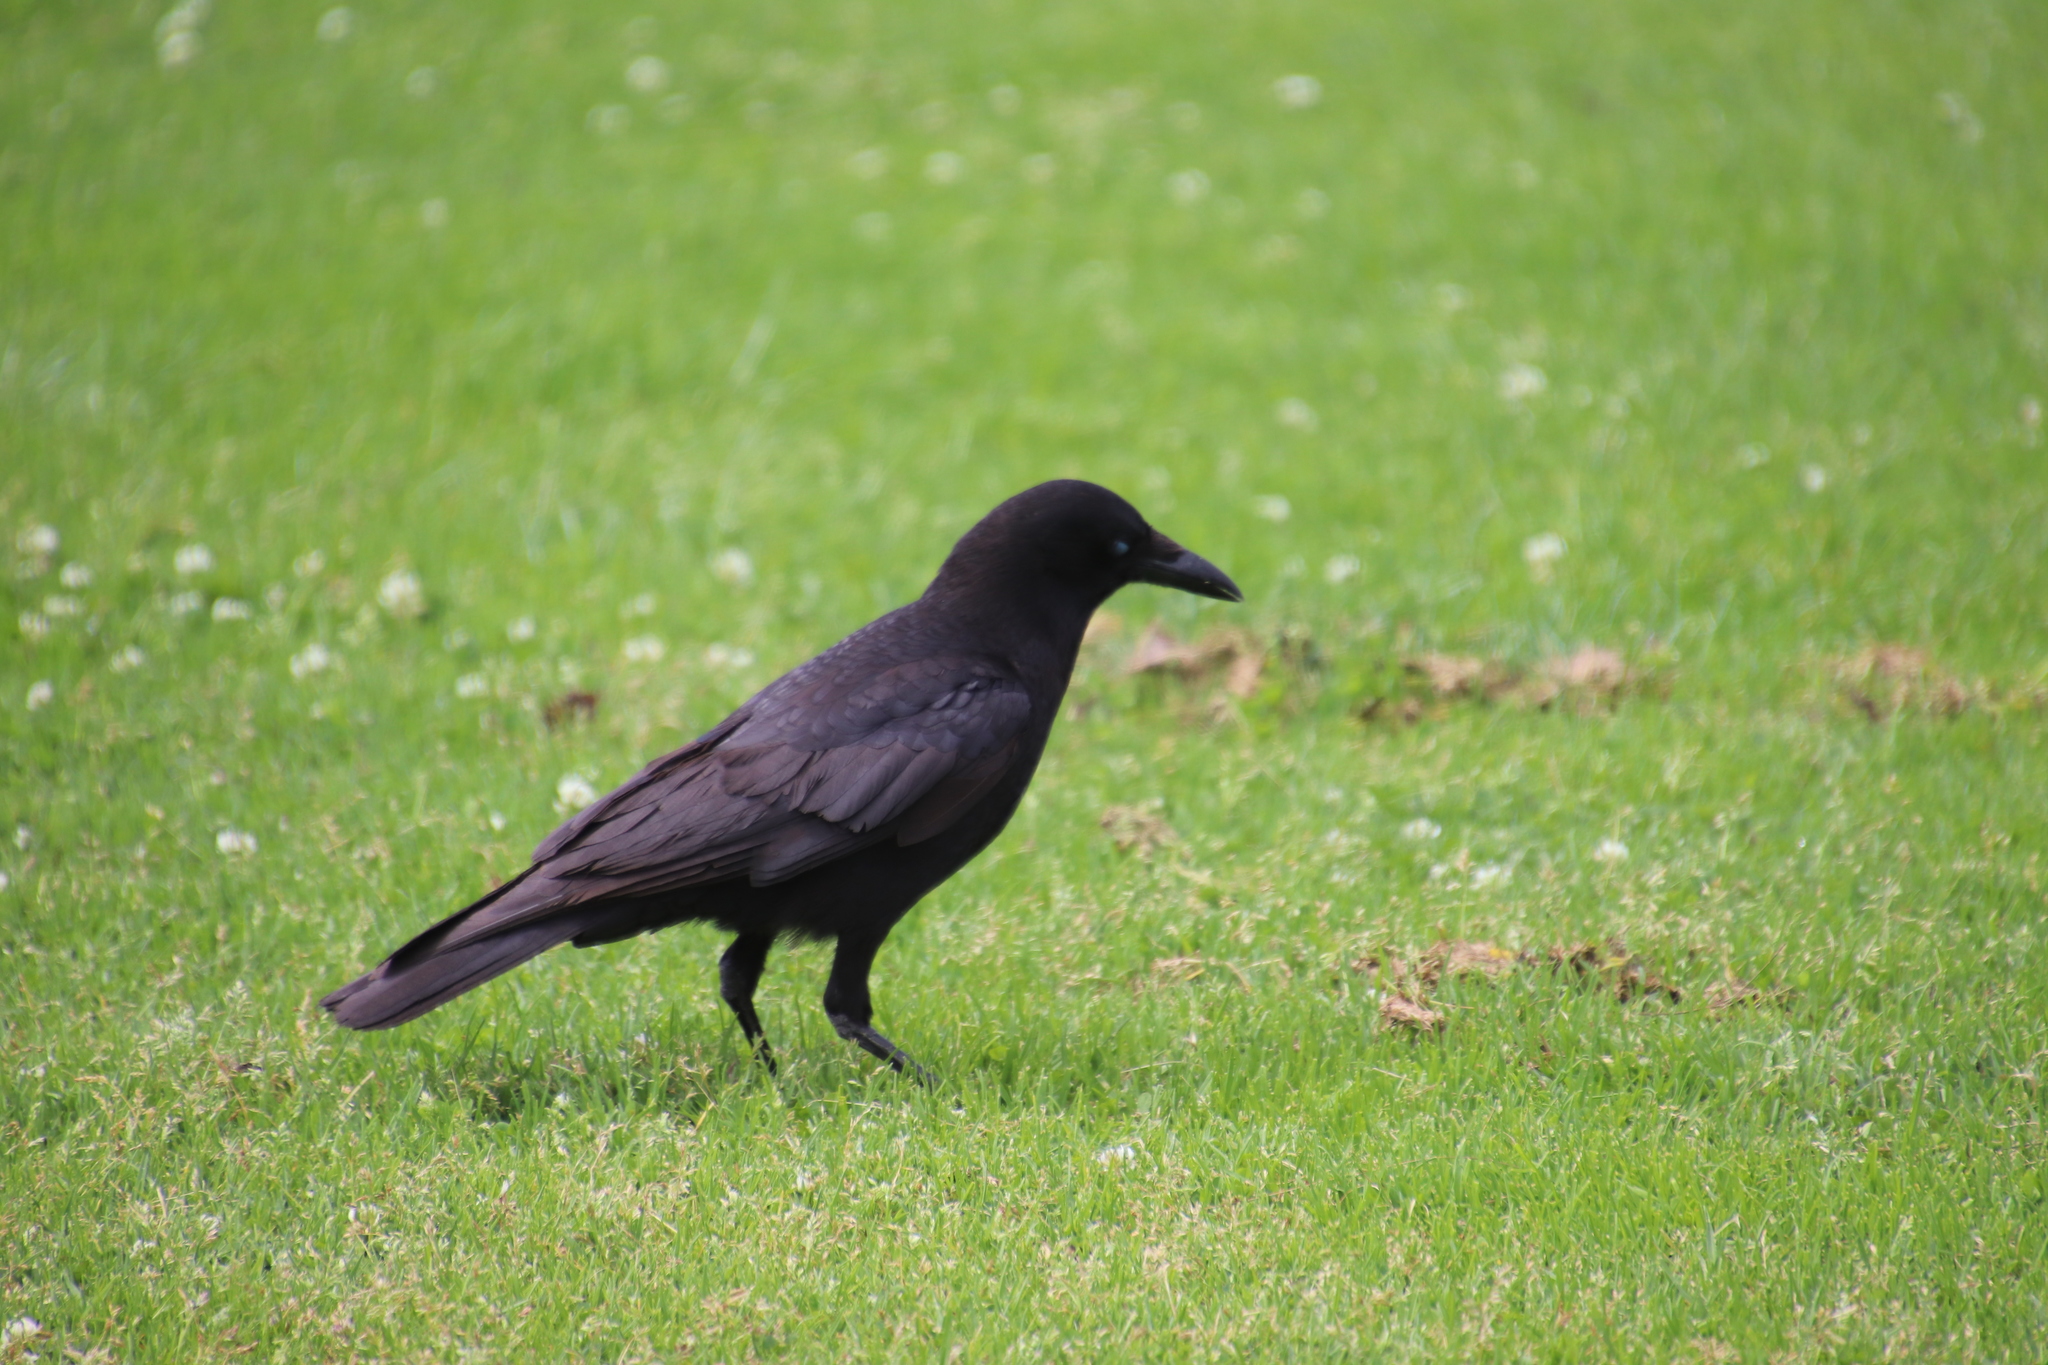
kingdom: Animalia
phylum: Chordata
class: Aves
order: Passeriformes
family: Corvidae
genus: Corvus
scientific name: Corvus brachyrhynchos
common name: American crow
